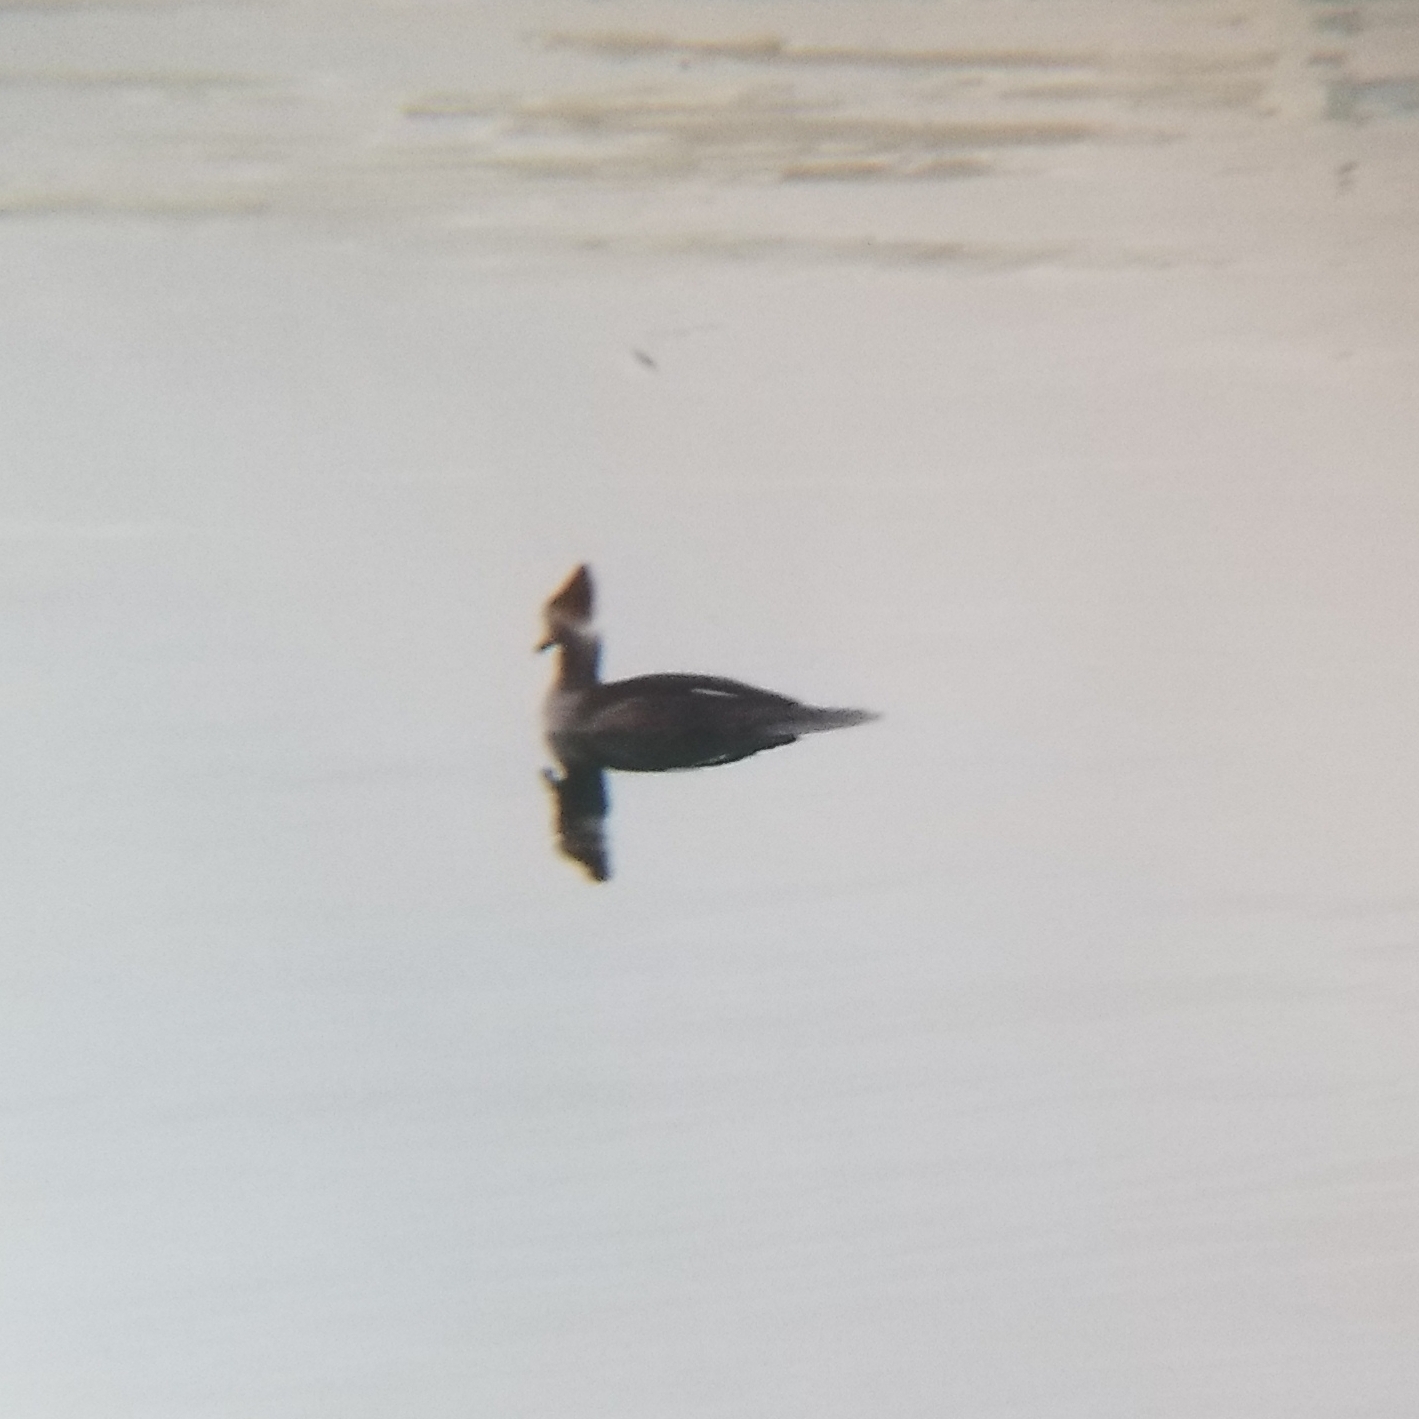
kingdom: Animalia
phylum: Chordata
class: Aves
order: Anseriformes
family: Anatidae
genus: Lophodytes
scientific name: Lophodytes cucullatus
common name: Hooded merganser
